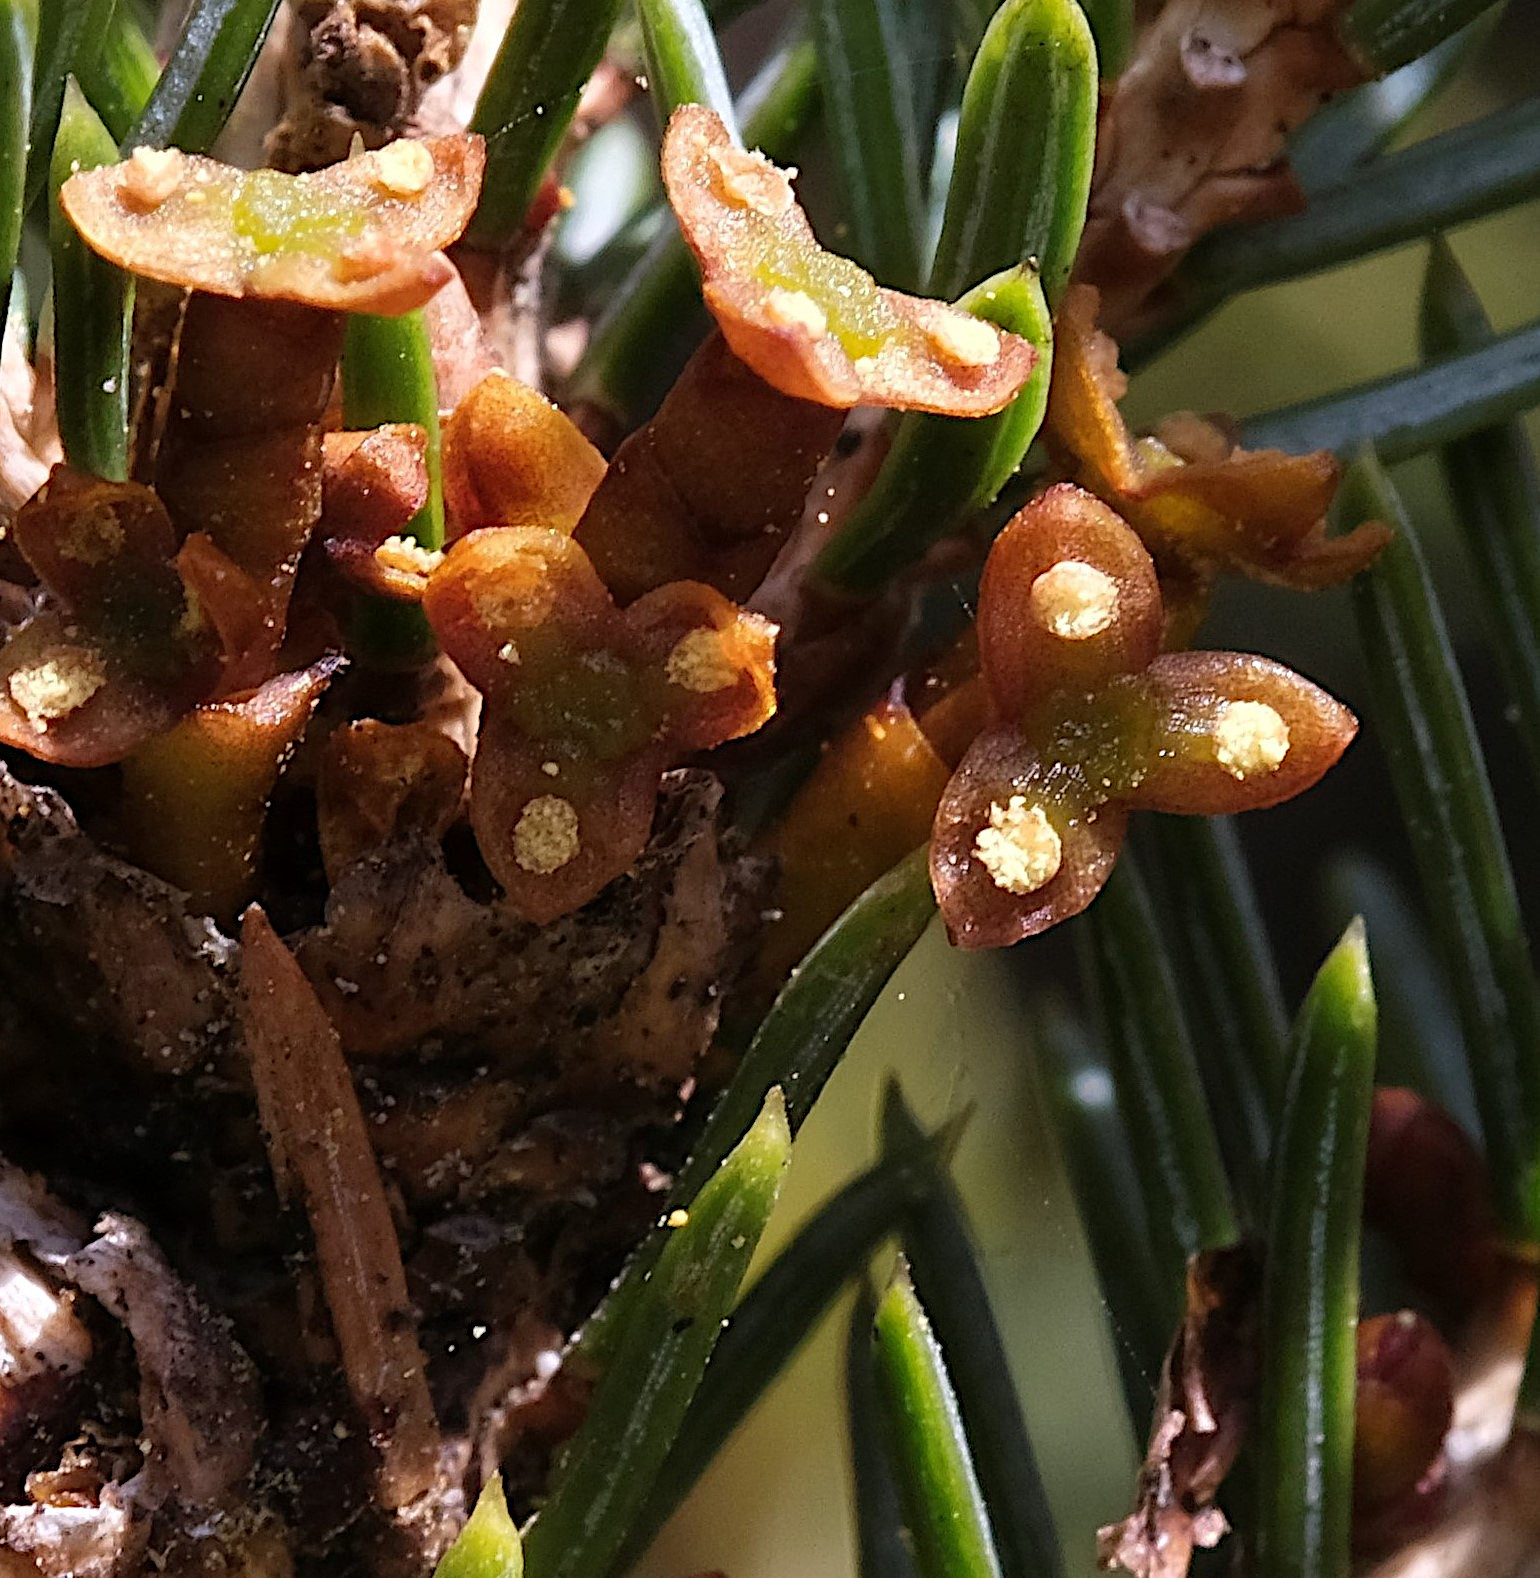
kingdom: Plantae
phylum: Tracheophyta
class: Magnoliopsida
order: Santalales
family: Viscaceae
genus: Arceuthobium
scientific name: Arceuthobium pusillum
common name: Dwarf-mistletoe
